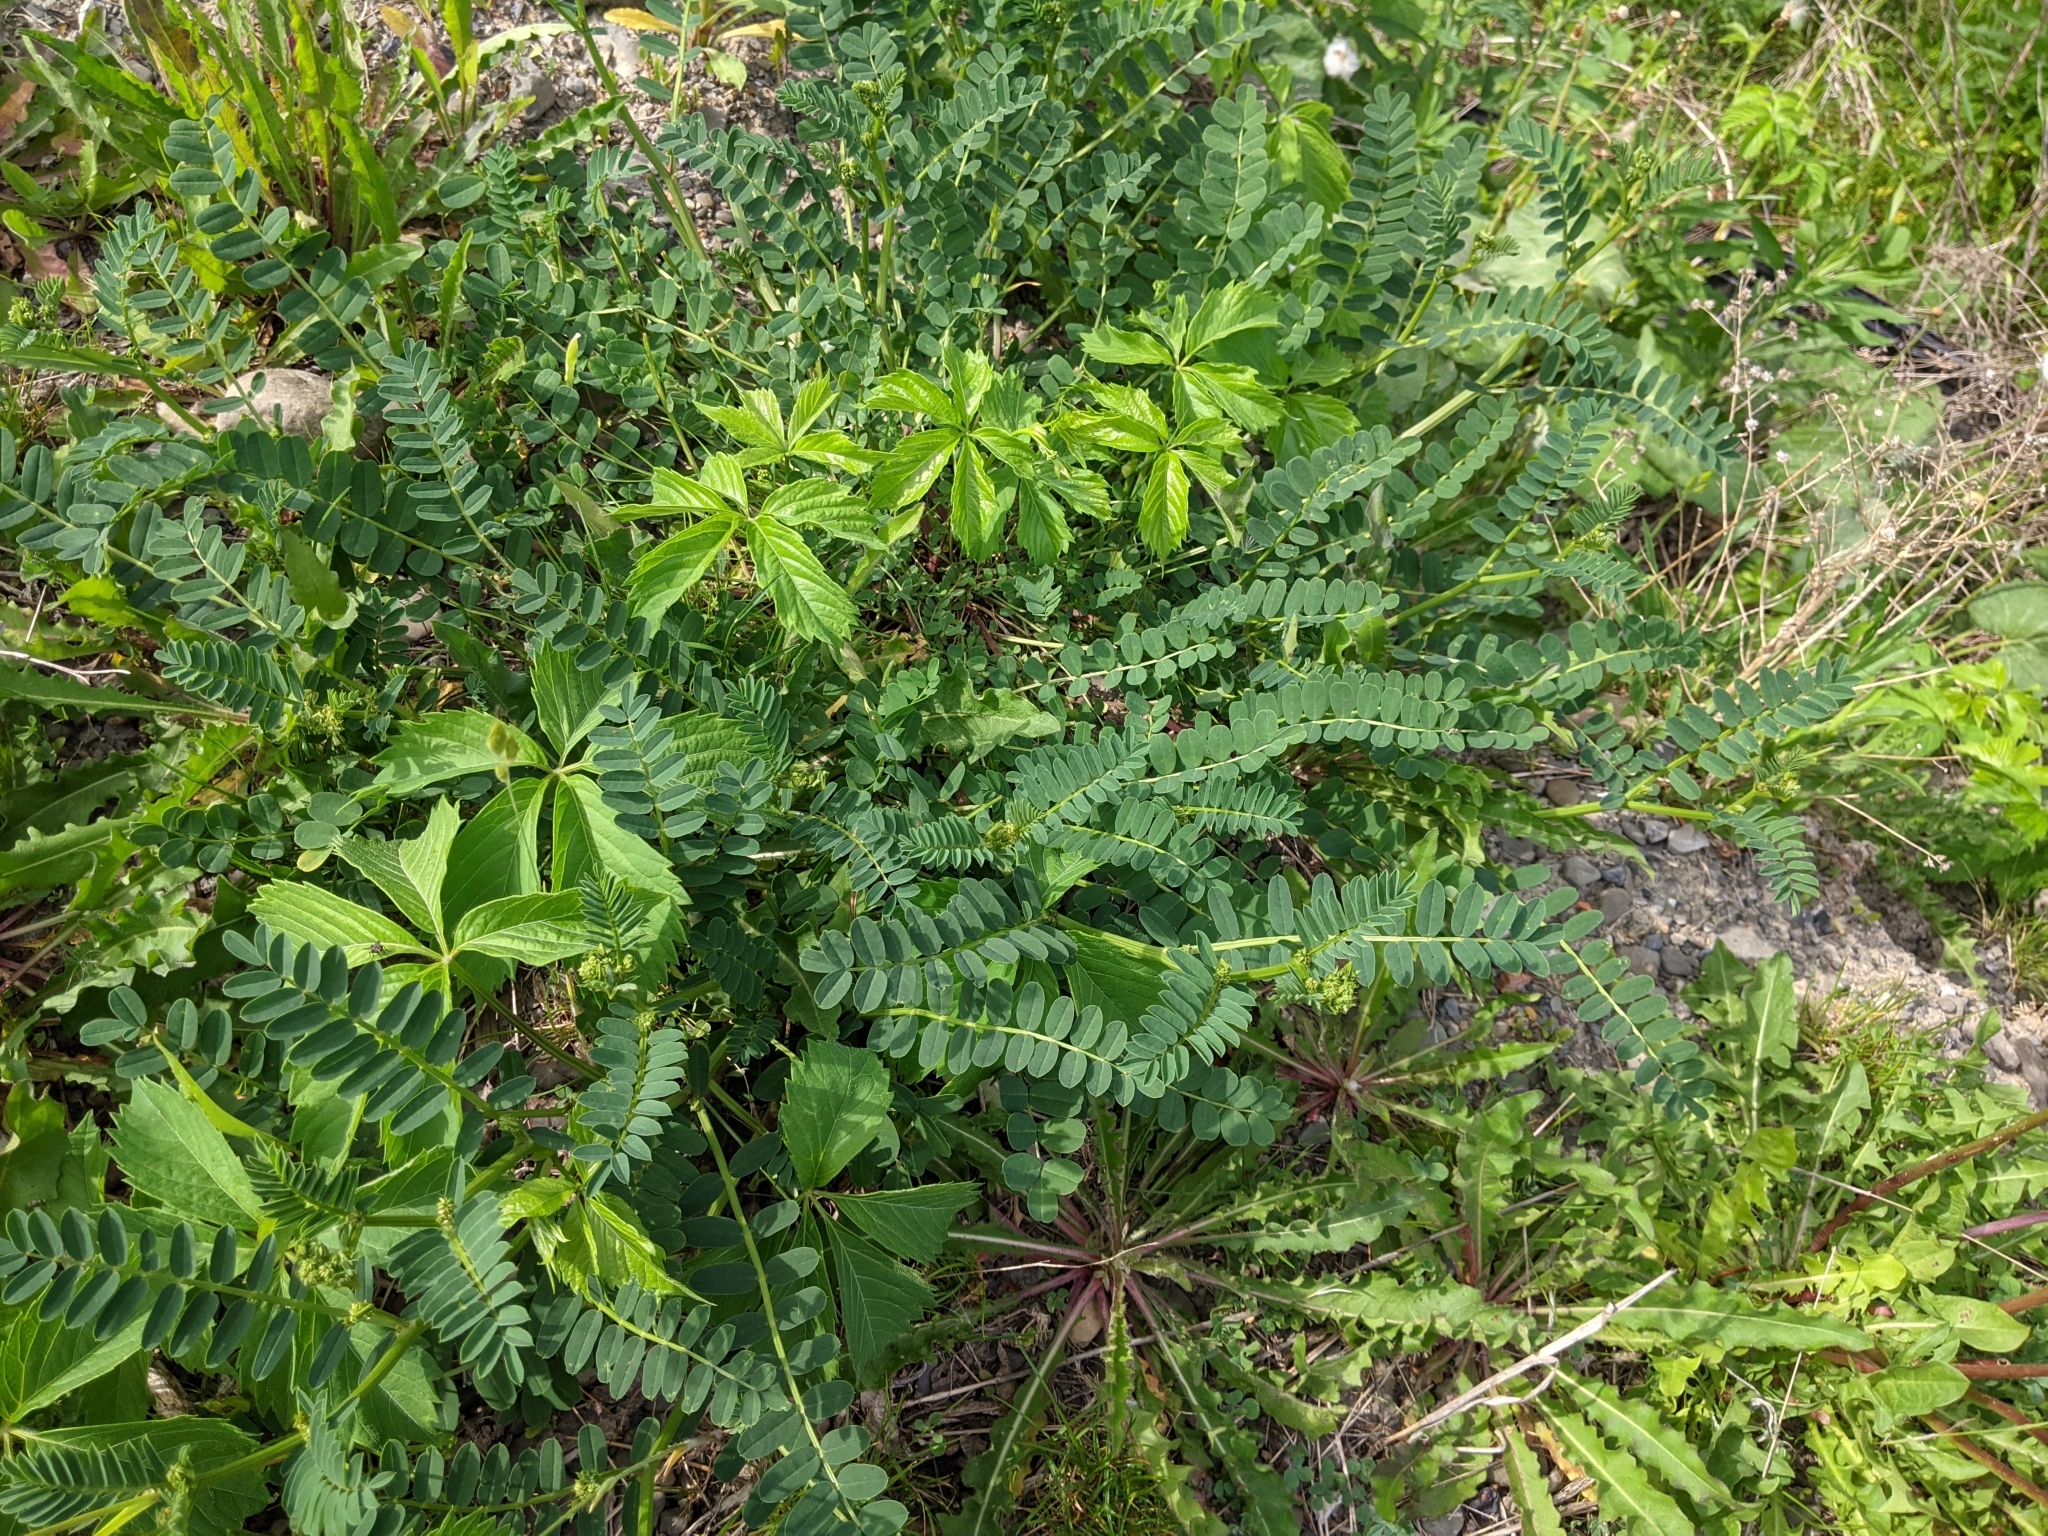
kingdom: Plantae
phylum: Tracheophyta
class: Magnoliopsida
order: Fabales
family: Fabaceae
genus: Coronilla
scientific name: Coronilla varia
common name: Crownvetch
